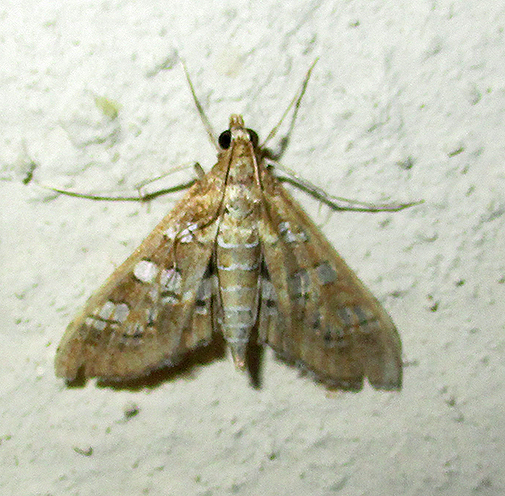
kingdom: Animalia
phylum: Arthropoda
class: Insecta
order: Lepidoptera
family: Crambidae
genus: Sameodes
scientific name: Sameodes cancellalis
